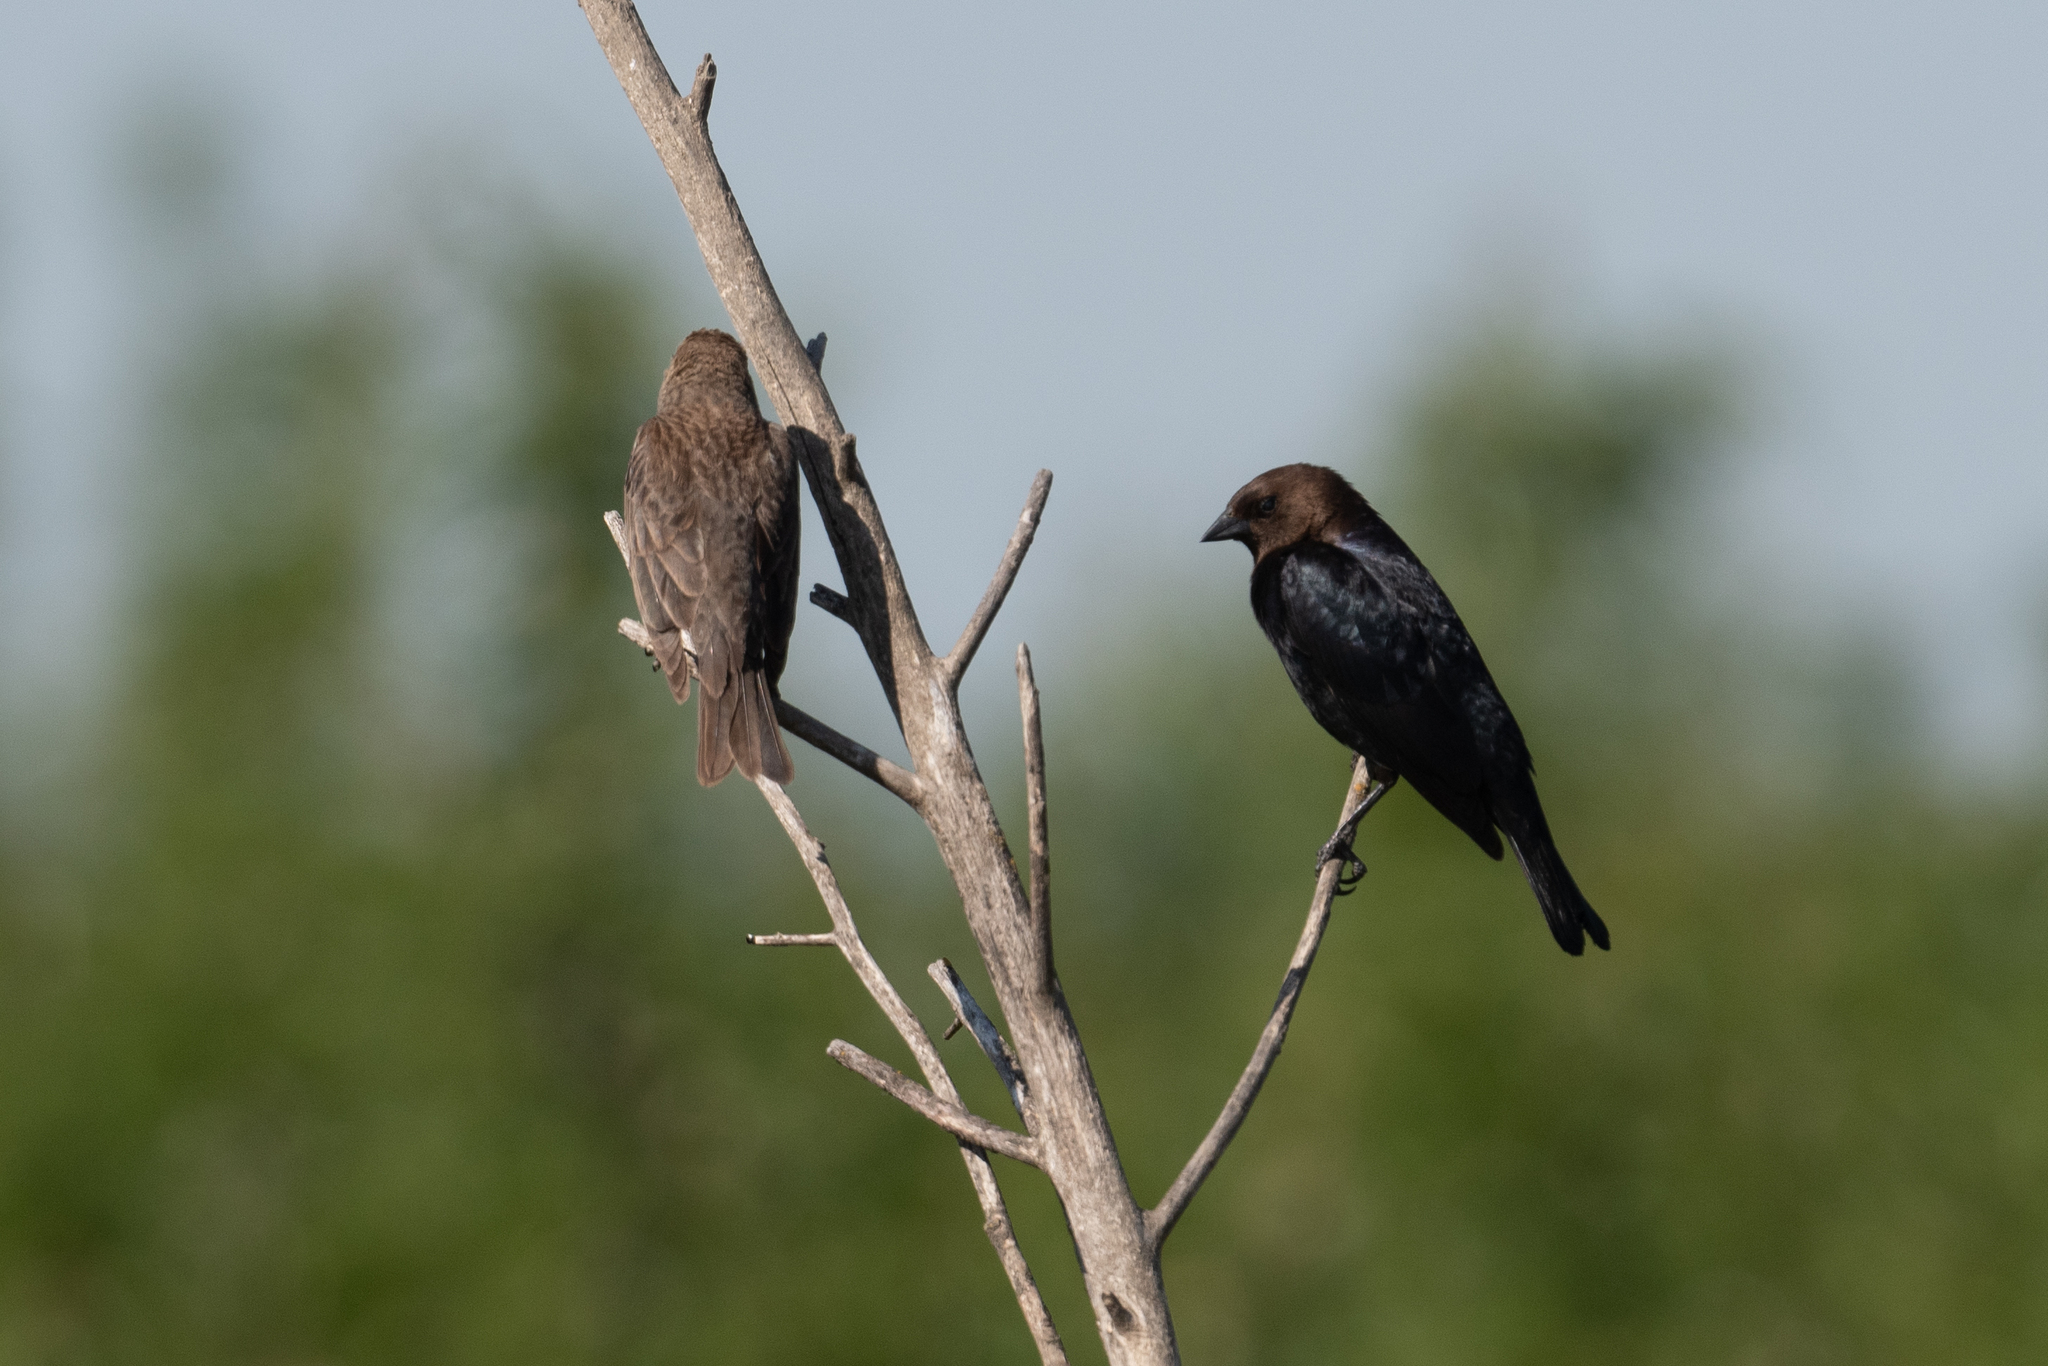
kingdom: Animalia
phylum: Chordata
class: Aves
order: Passeriformes
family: Icteridae
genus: Molothrus
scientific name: Molothrus ater
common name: Brown-headed cowbird
